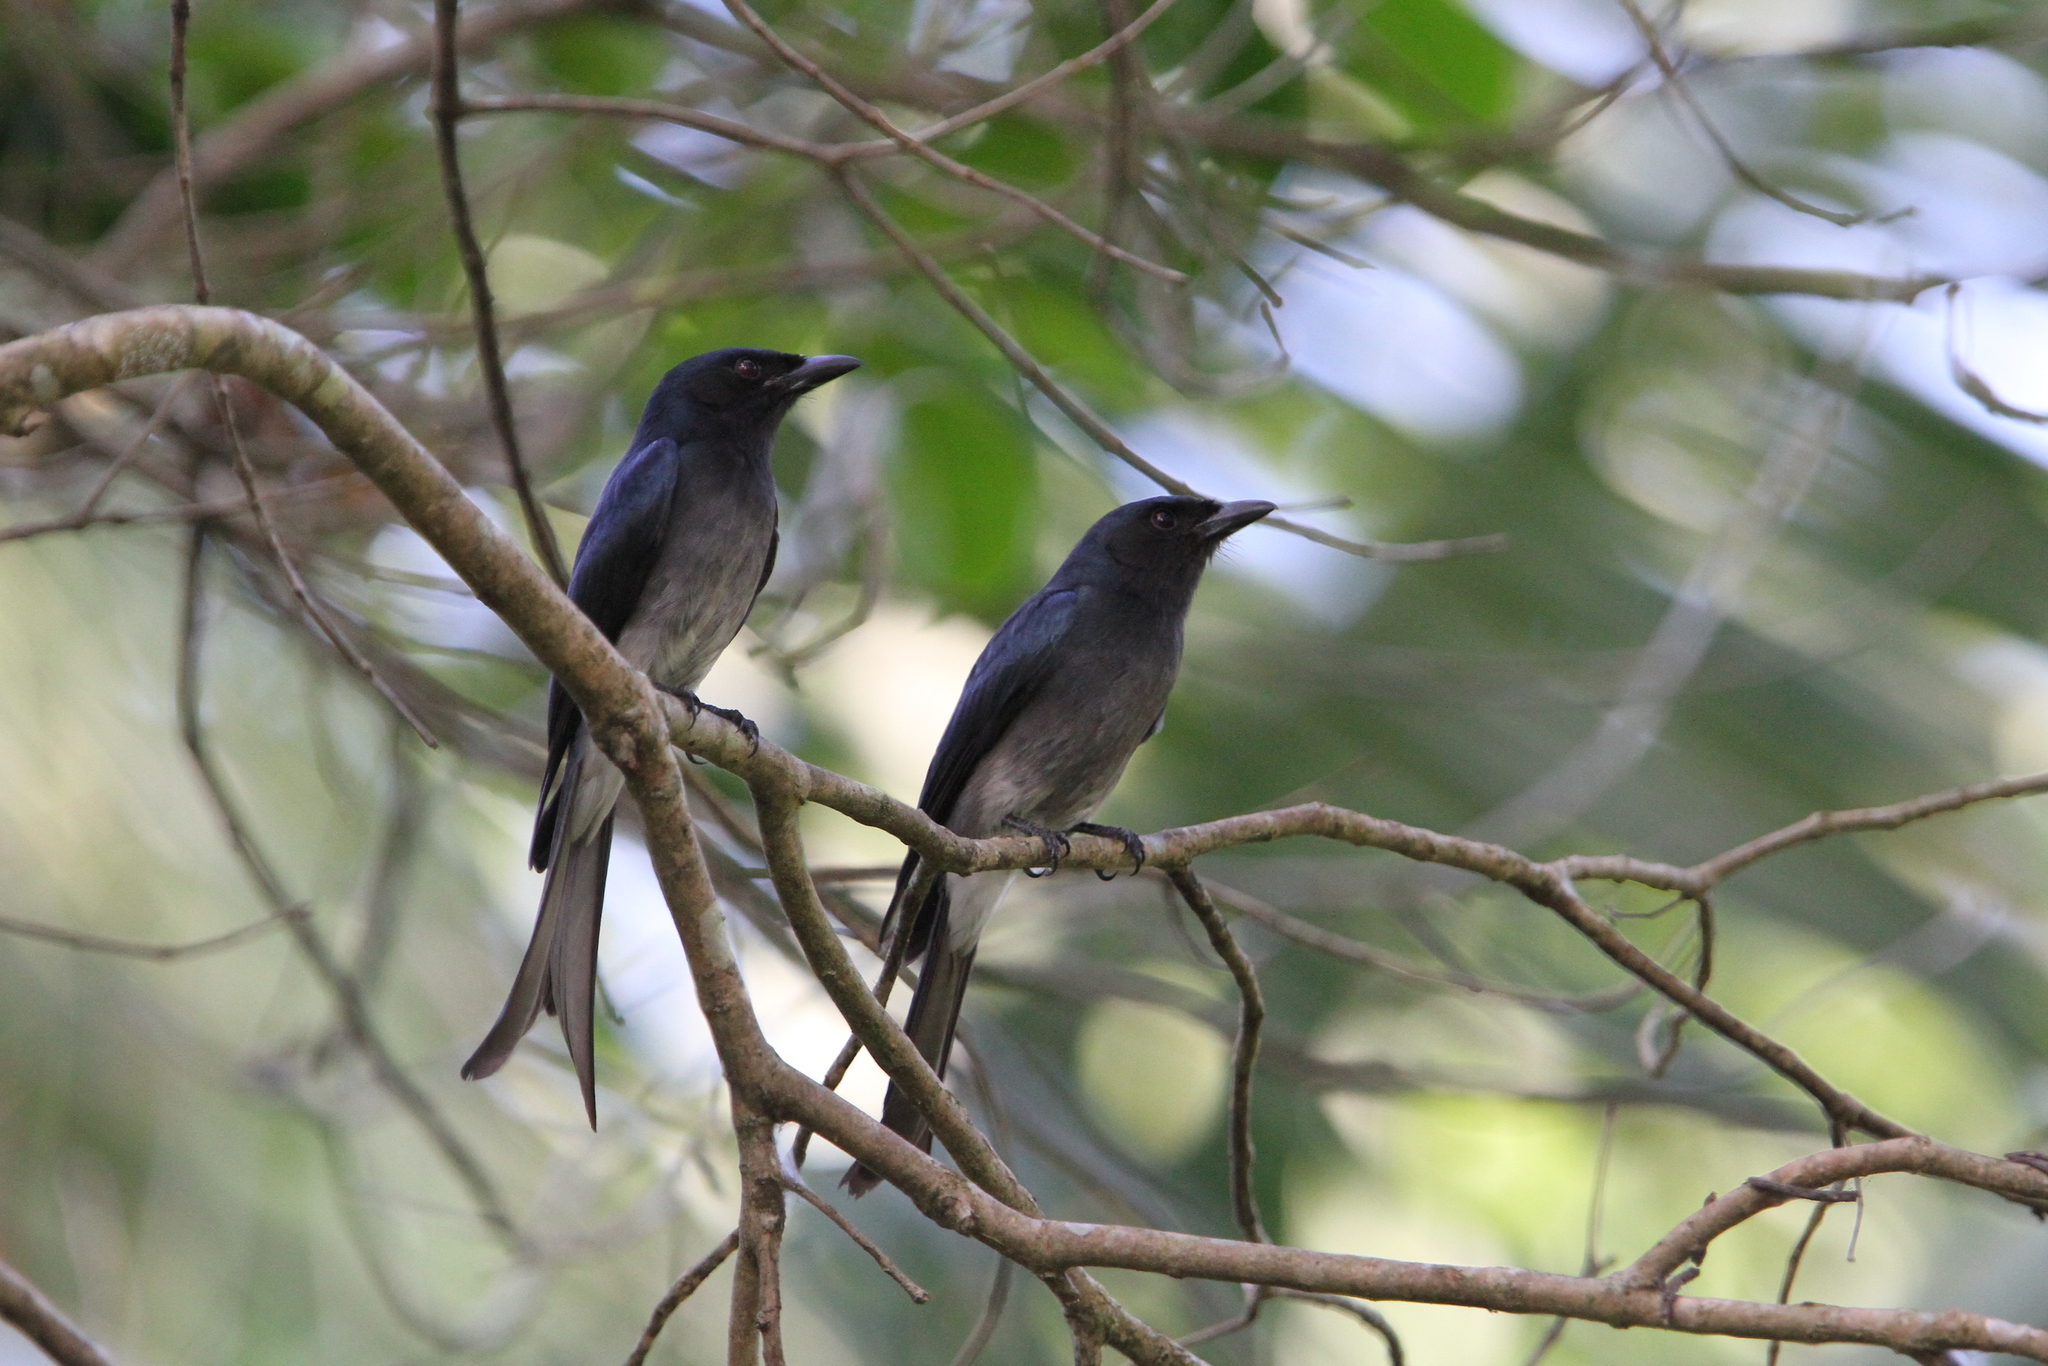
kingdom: Animalia
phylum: Chordata
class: Aves
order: Passeriformes
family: Dicruridae
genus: Dicrurus
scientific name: Dicrurus caerulescens
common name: White-bellied drongo
